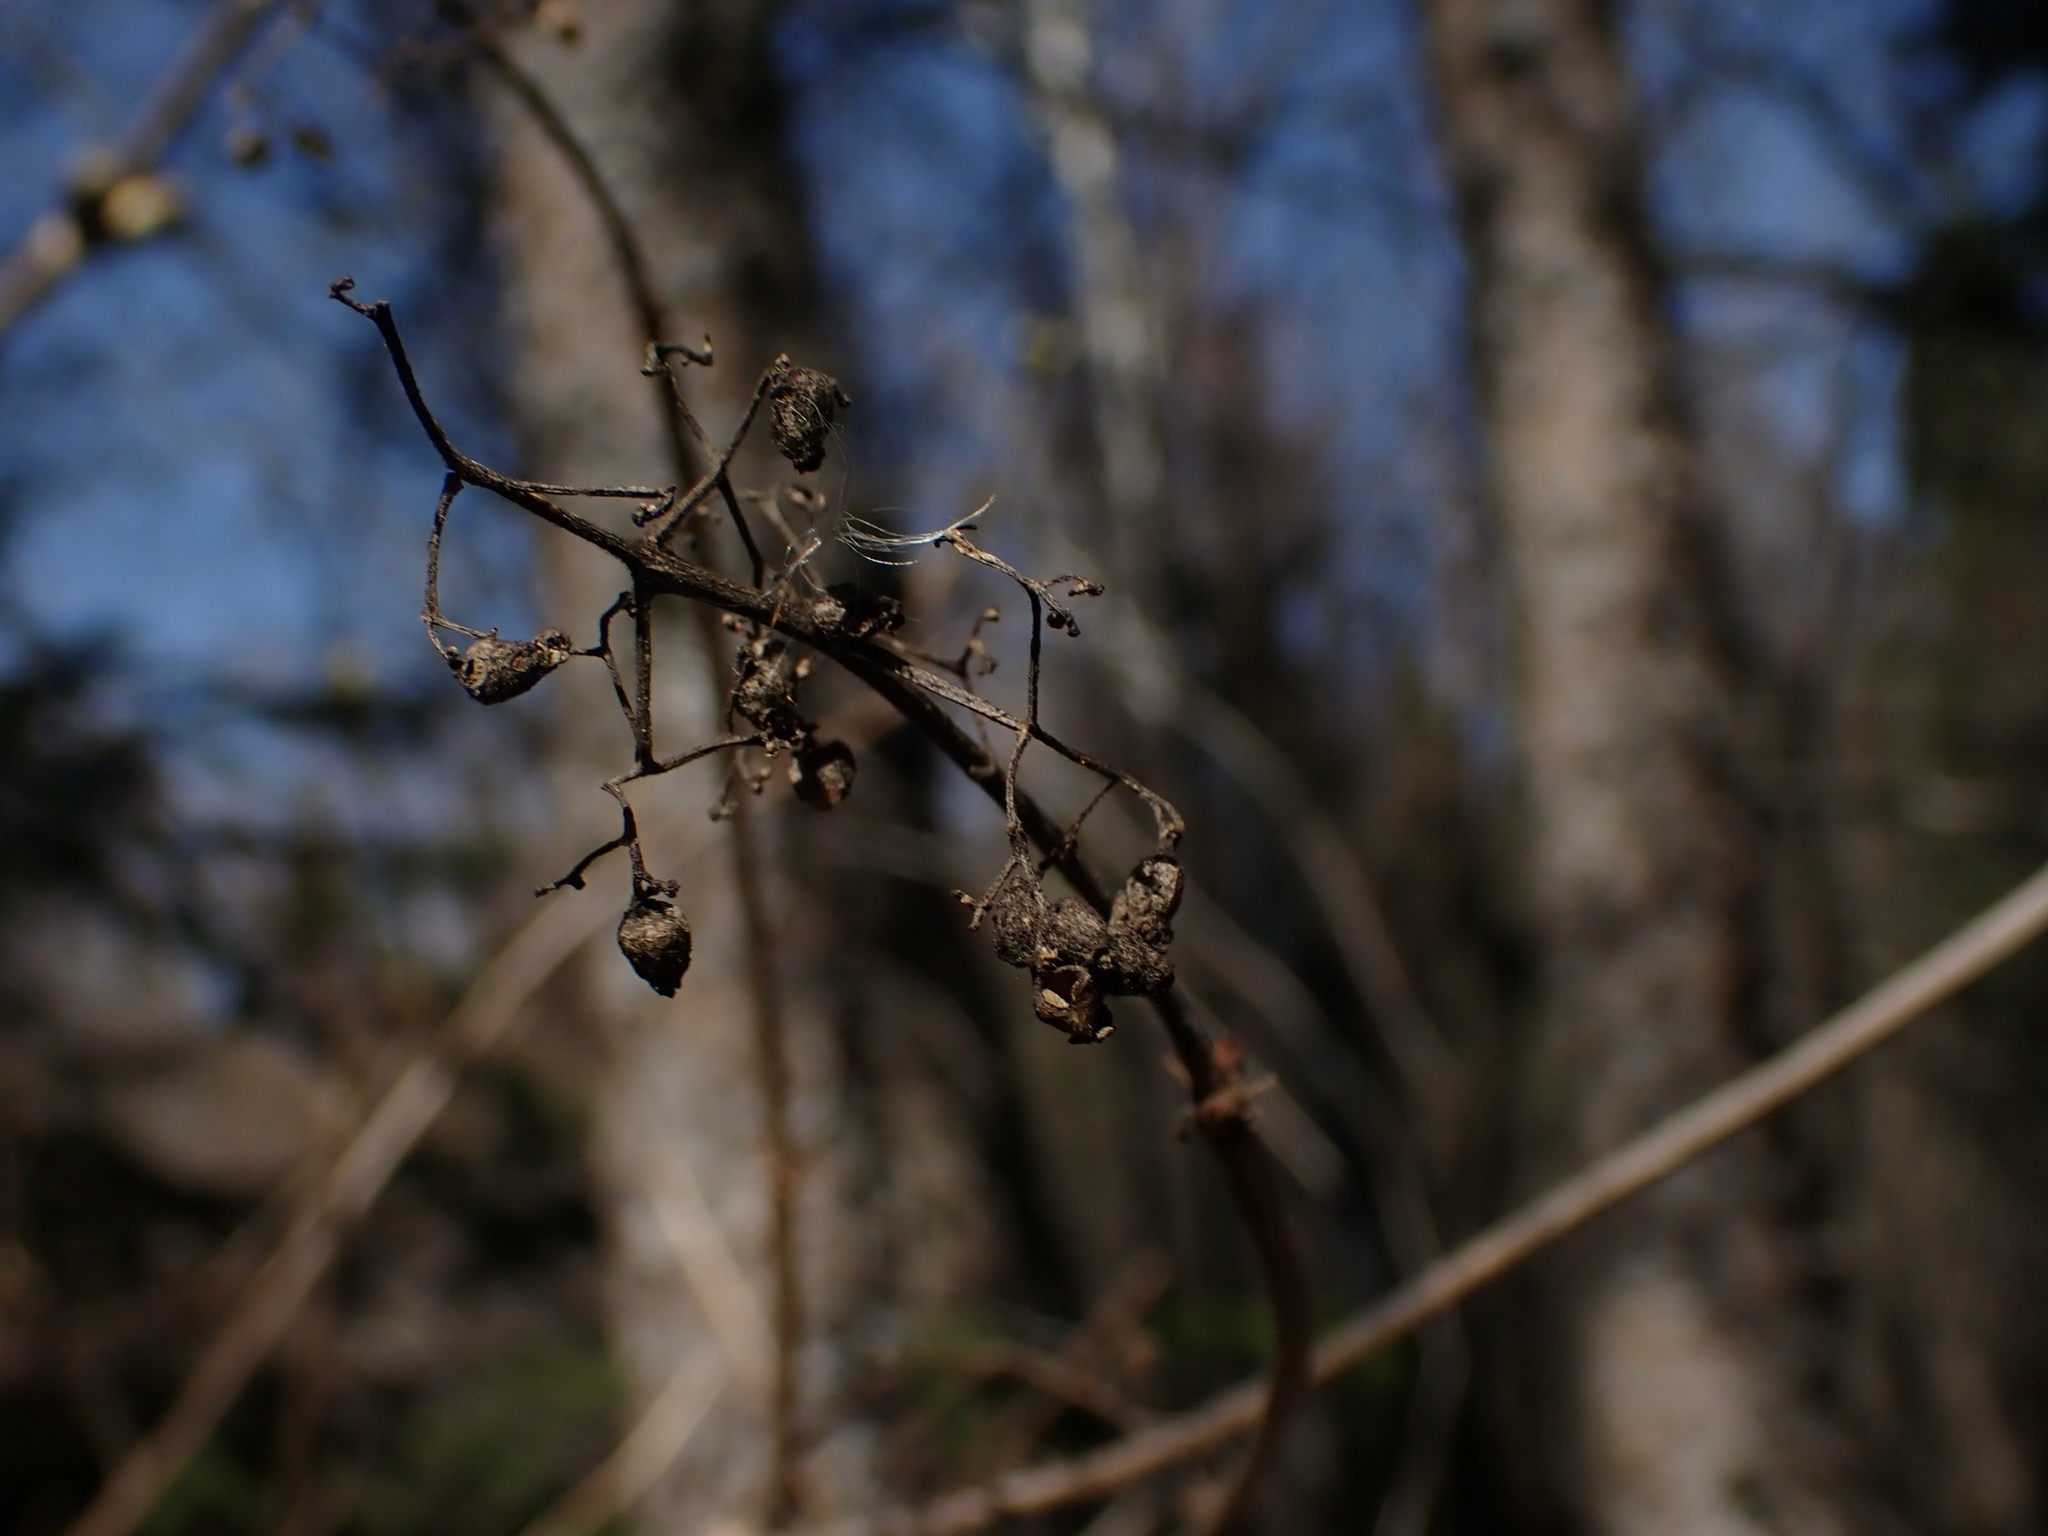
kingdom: Plantae
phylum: Tracheophyta
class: Magnoliopsida
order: Dipsacales
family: Viburnaceae
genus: Sambucus
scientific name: Sambucus racemosa
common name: Red-berried elder
